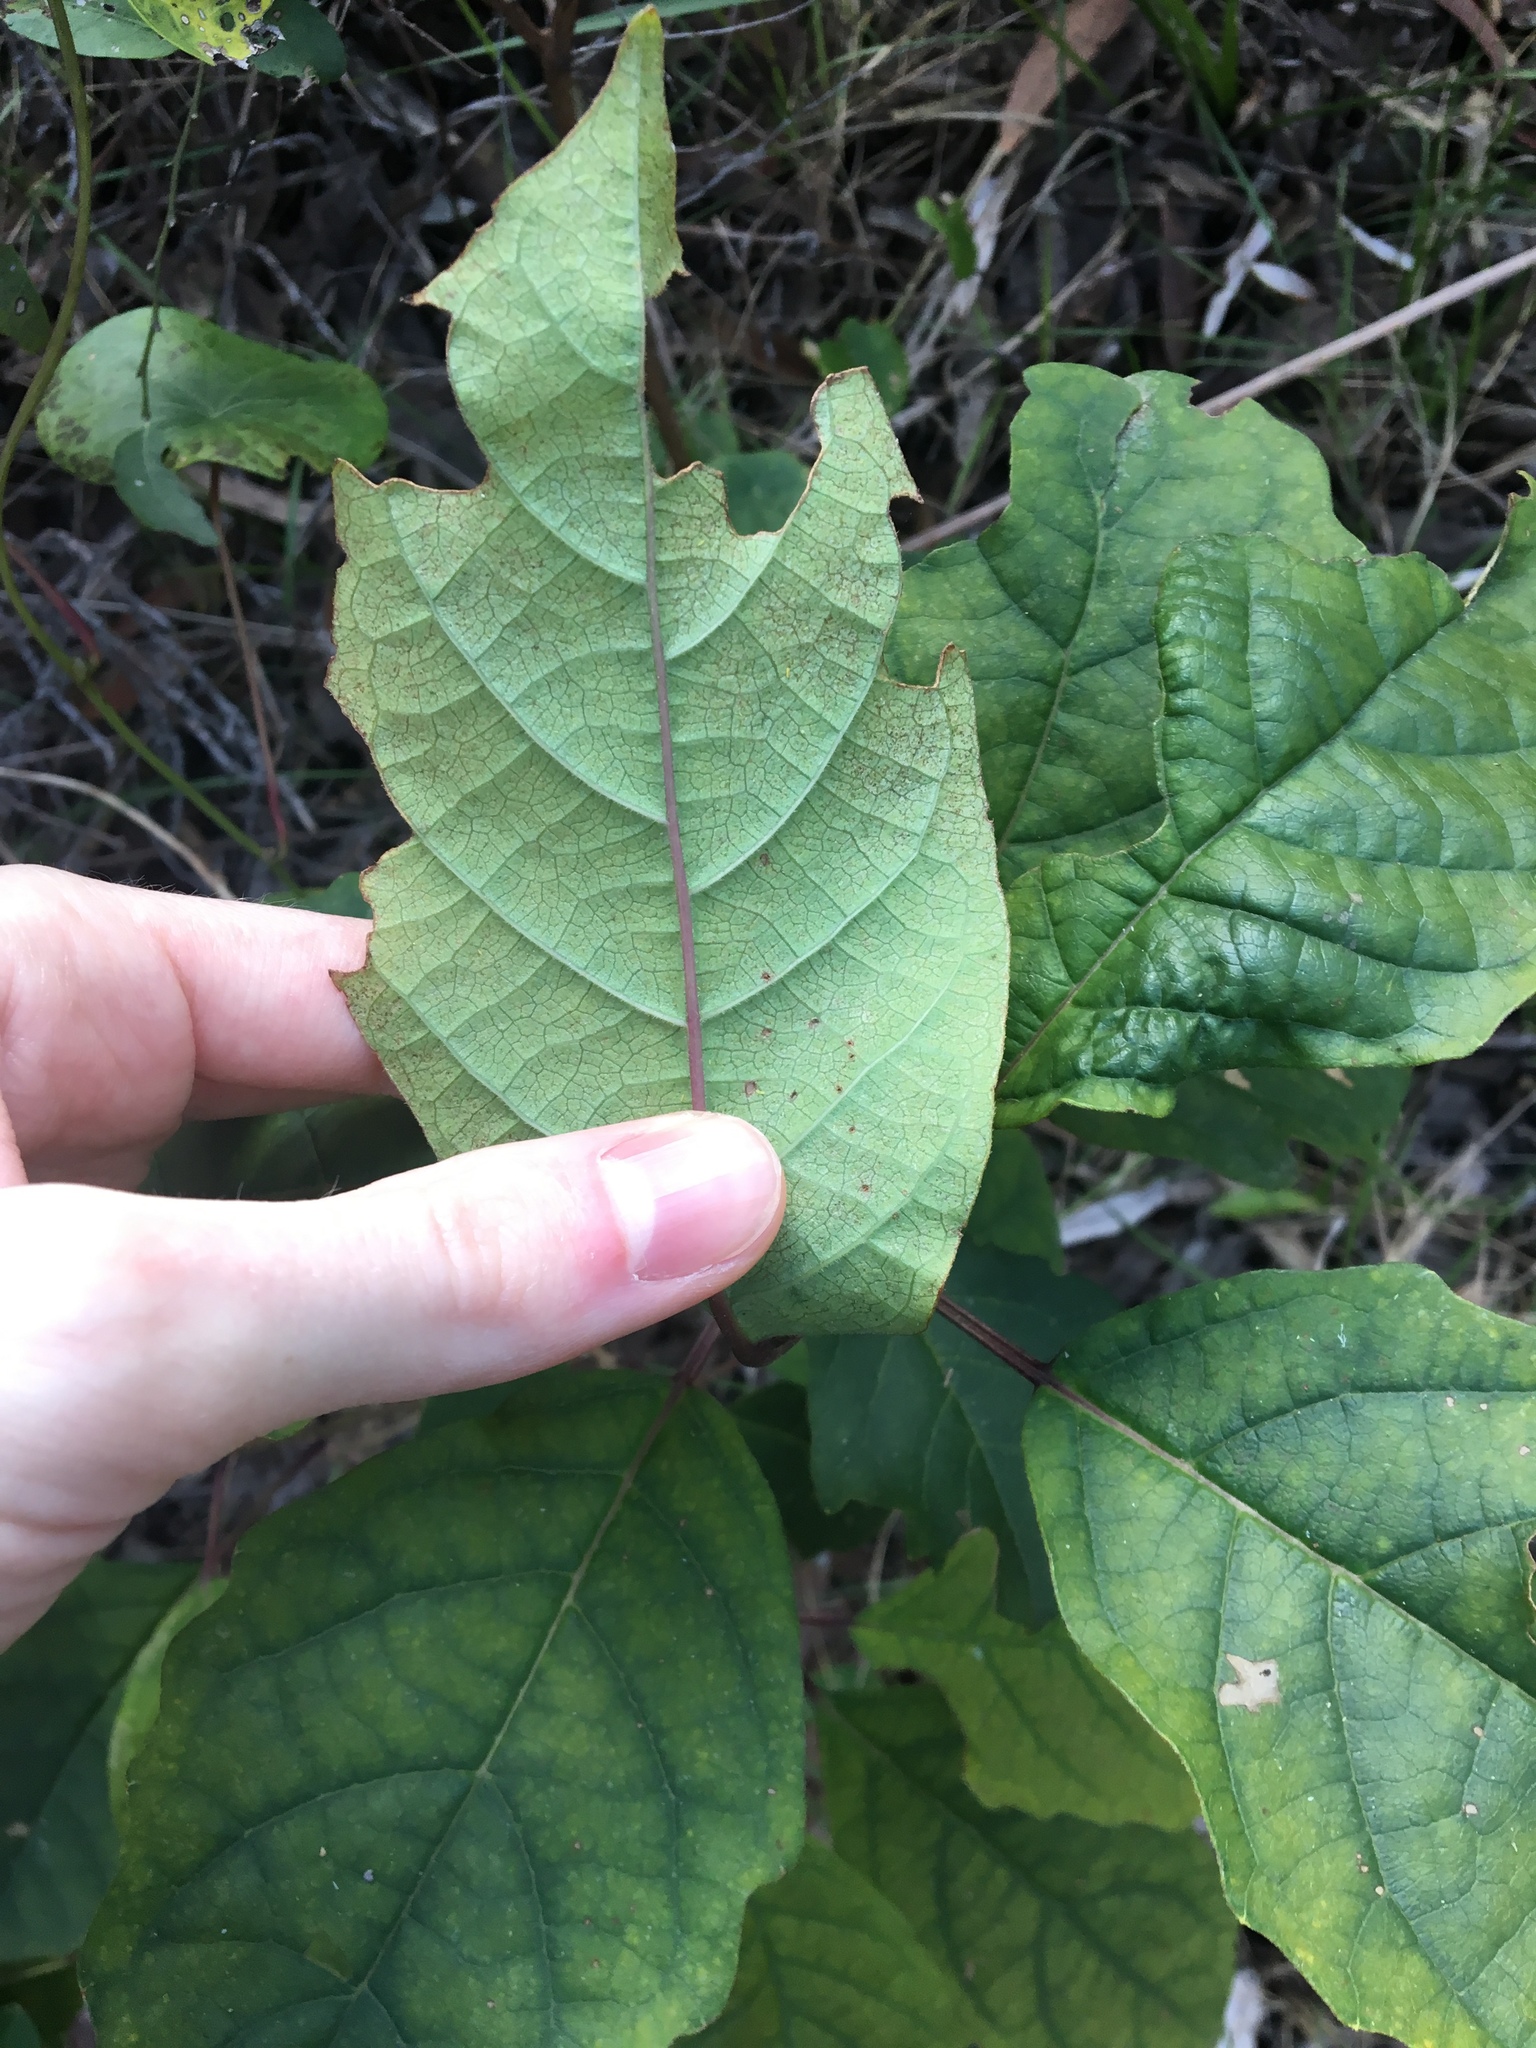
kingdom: Plantae
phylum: Tracheophyta
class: Magnoliopsida
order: Lamiales
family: Lamiaceae
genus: Clerodendrum
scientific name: Clerodendrum floribundum
